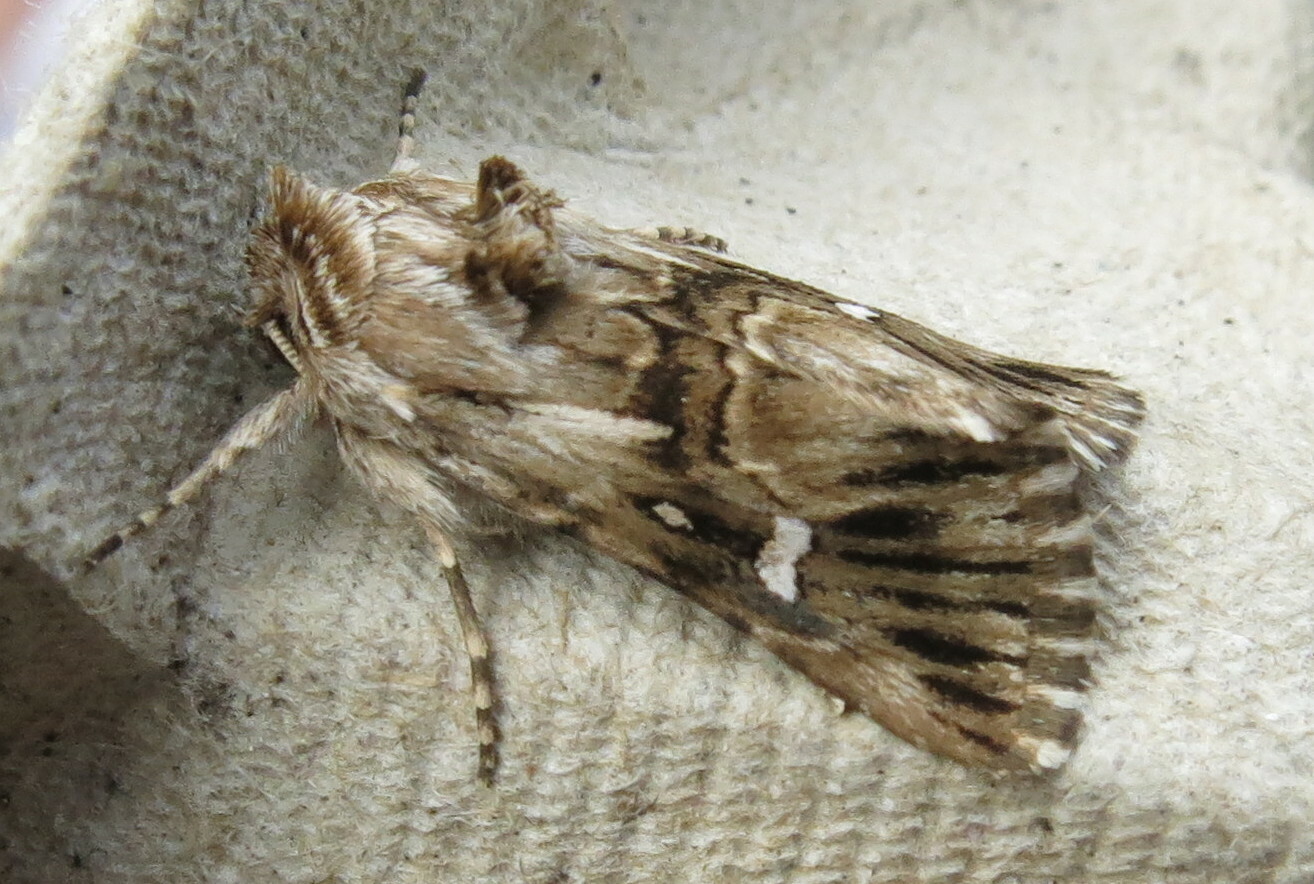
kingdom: Animalia
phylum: Arthropoda
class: Insecta
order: Lepidoptera
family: Noctuidae
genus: Calophasia
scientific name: Calophasia lunula
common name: Toadflax brocade
